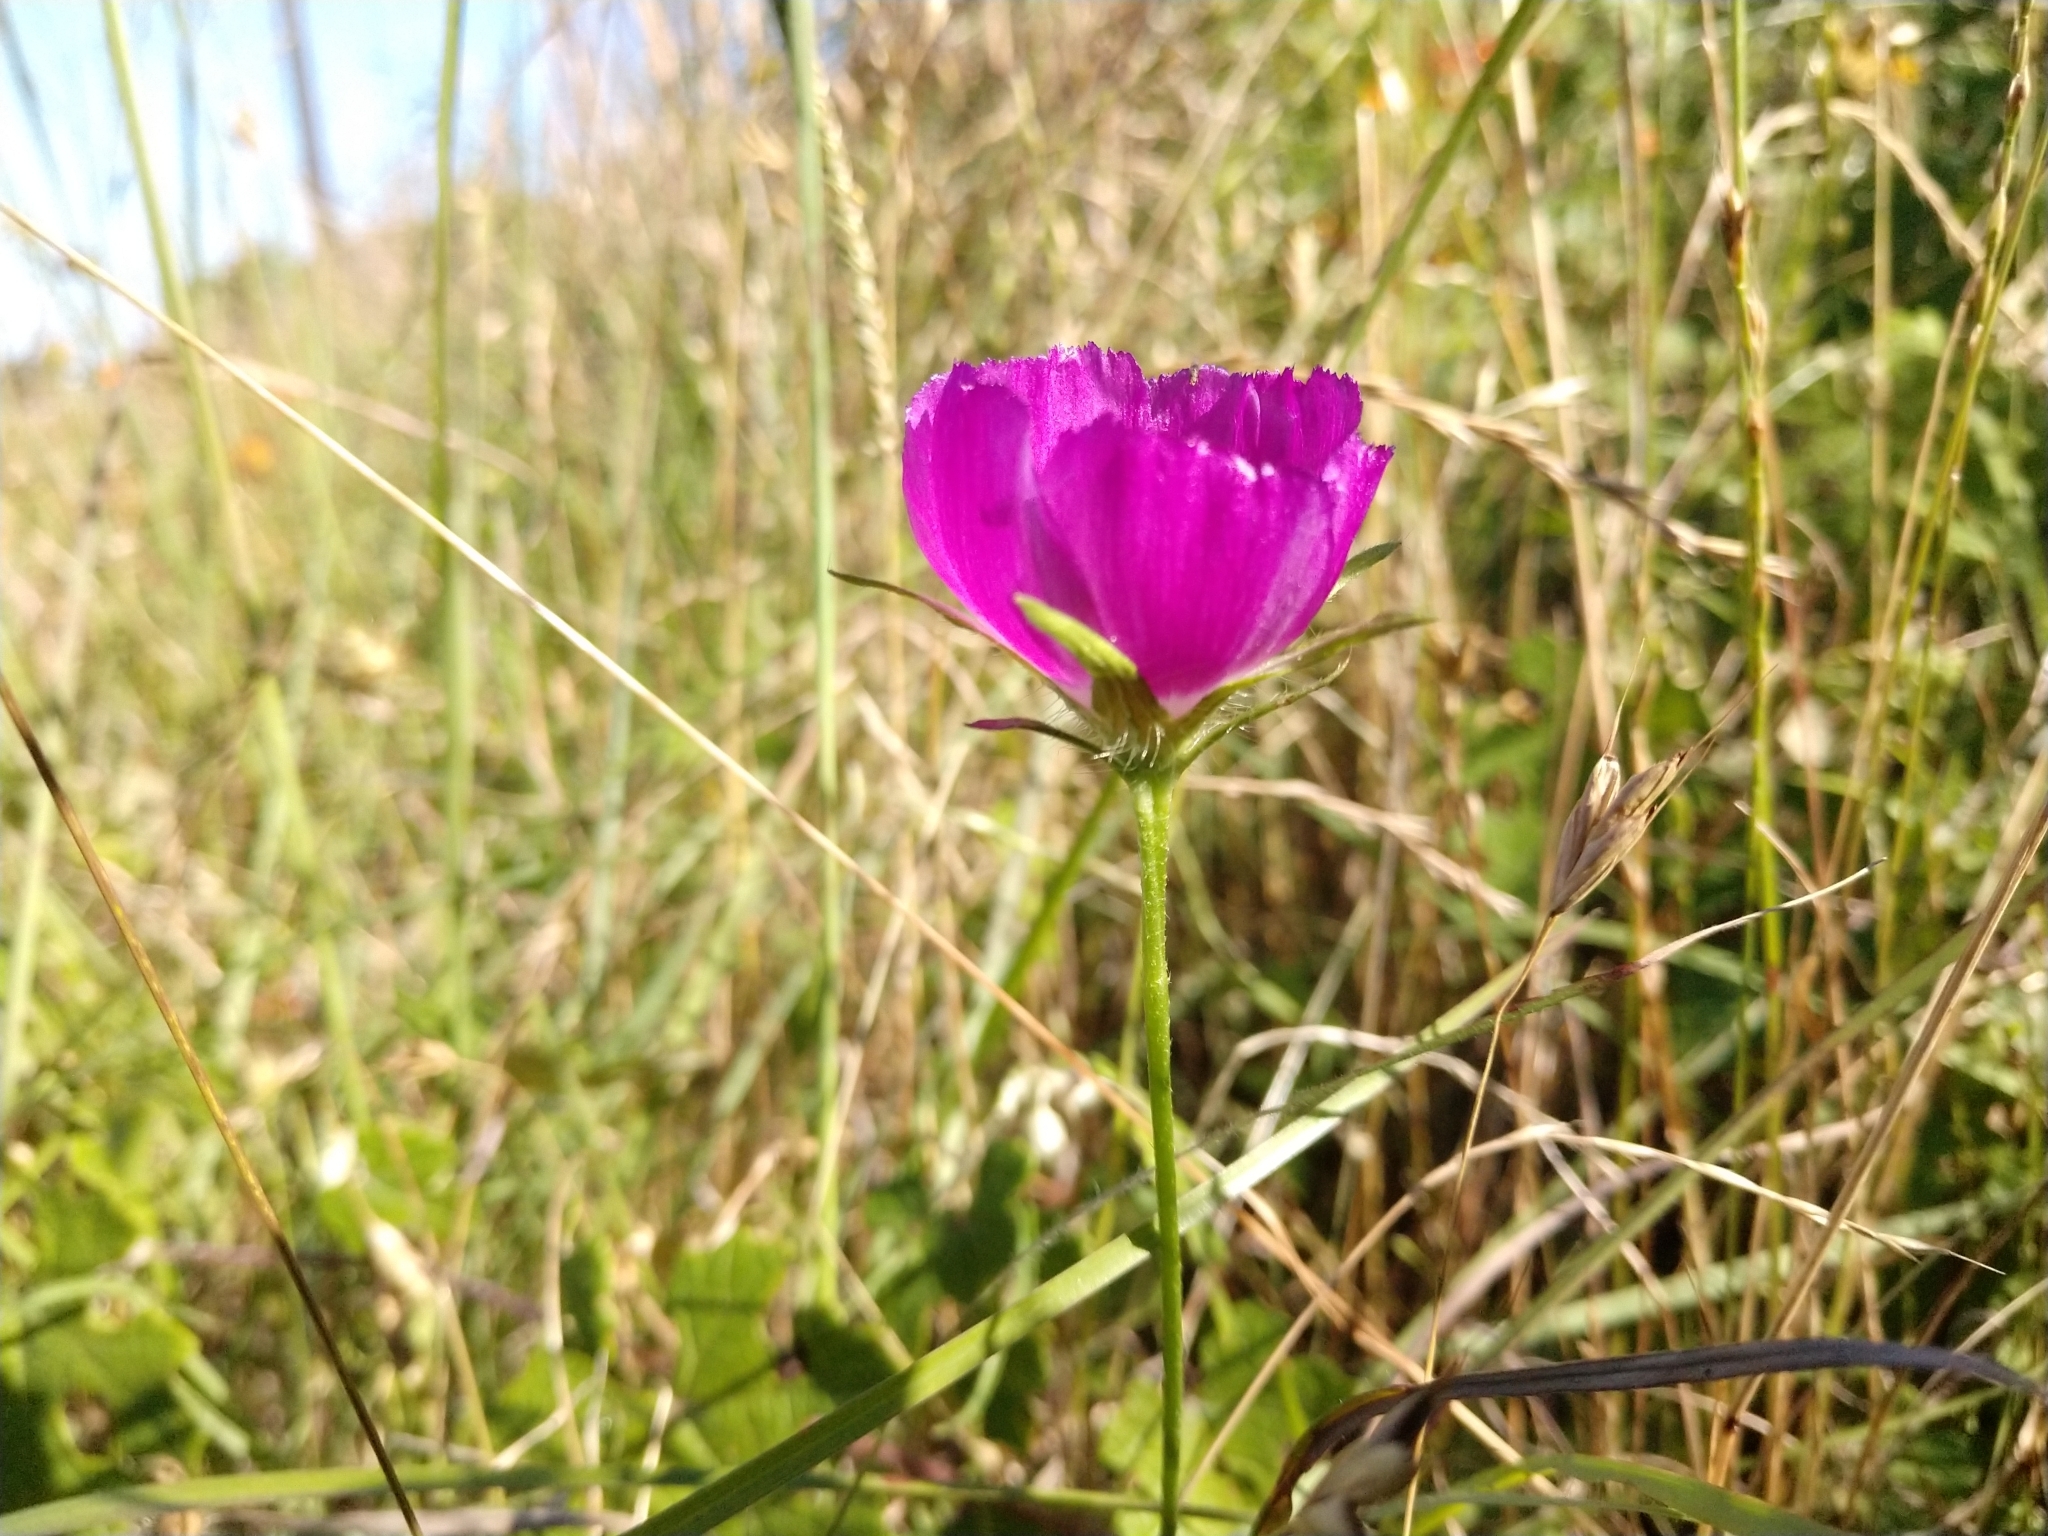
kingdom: Plantae
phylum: Tracheophyta
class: Magnoliopsida
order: Malvales
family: Malvaceae
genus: Callirhoe
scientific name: Callirhoe involucrata
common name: Purple poppy-mallow
